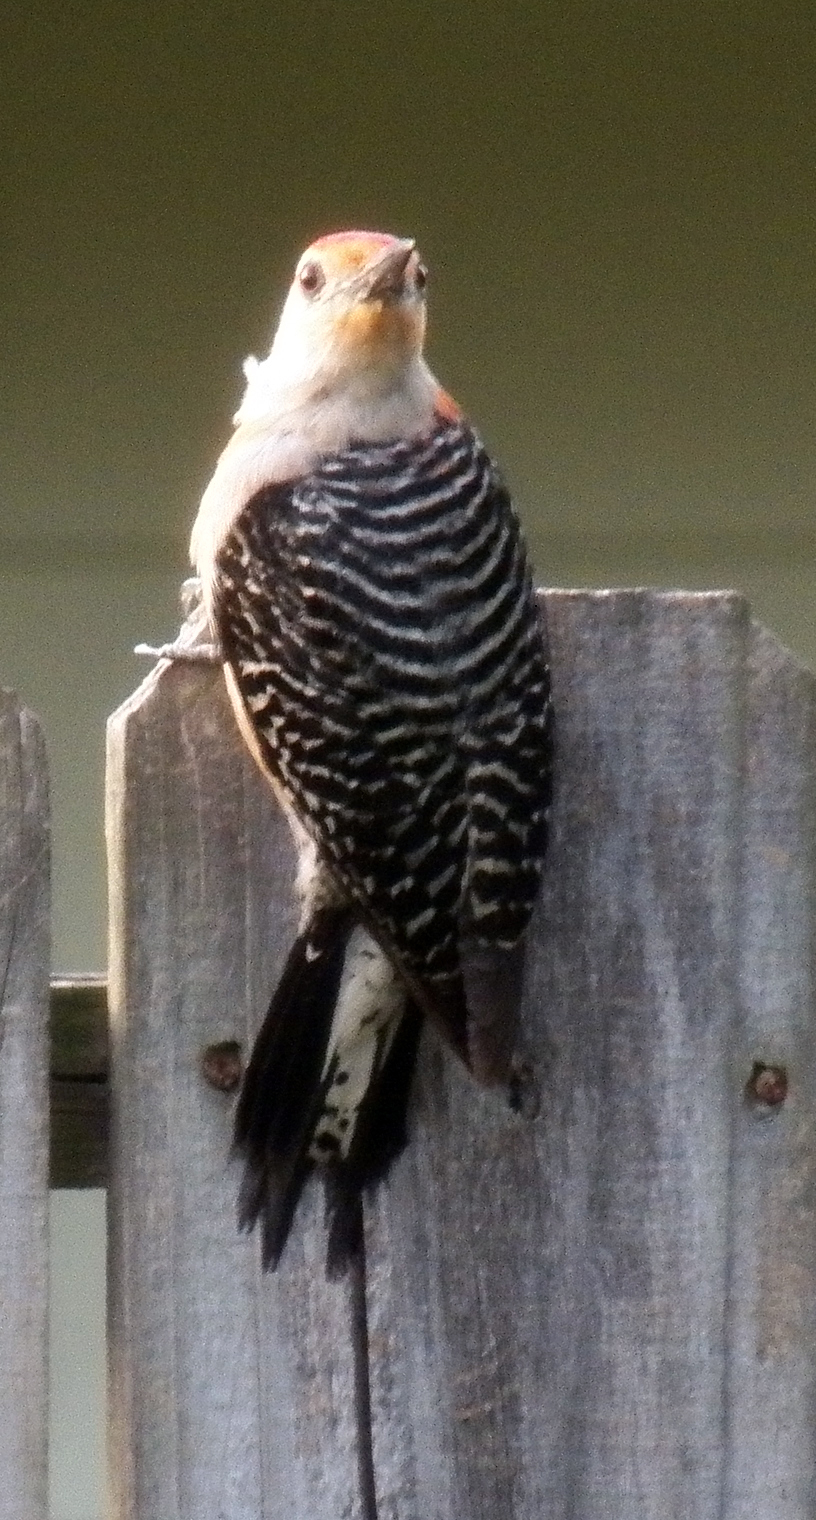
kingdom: Animalia
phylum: Chordata
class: Aves
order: Piciformes
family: Picidae
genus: Melanerpes
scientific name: Melanerpes carolinus
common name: Red-bellied woodpecker
